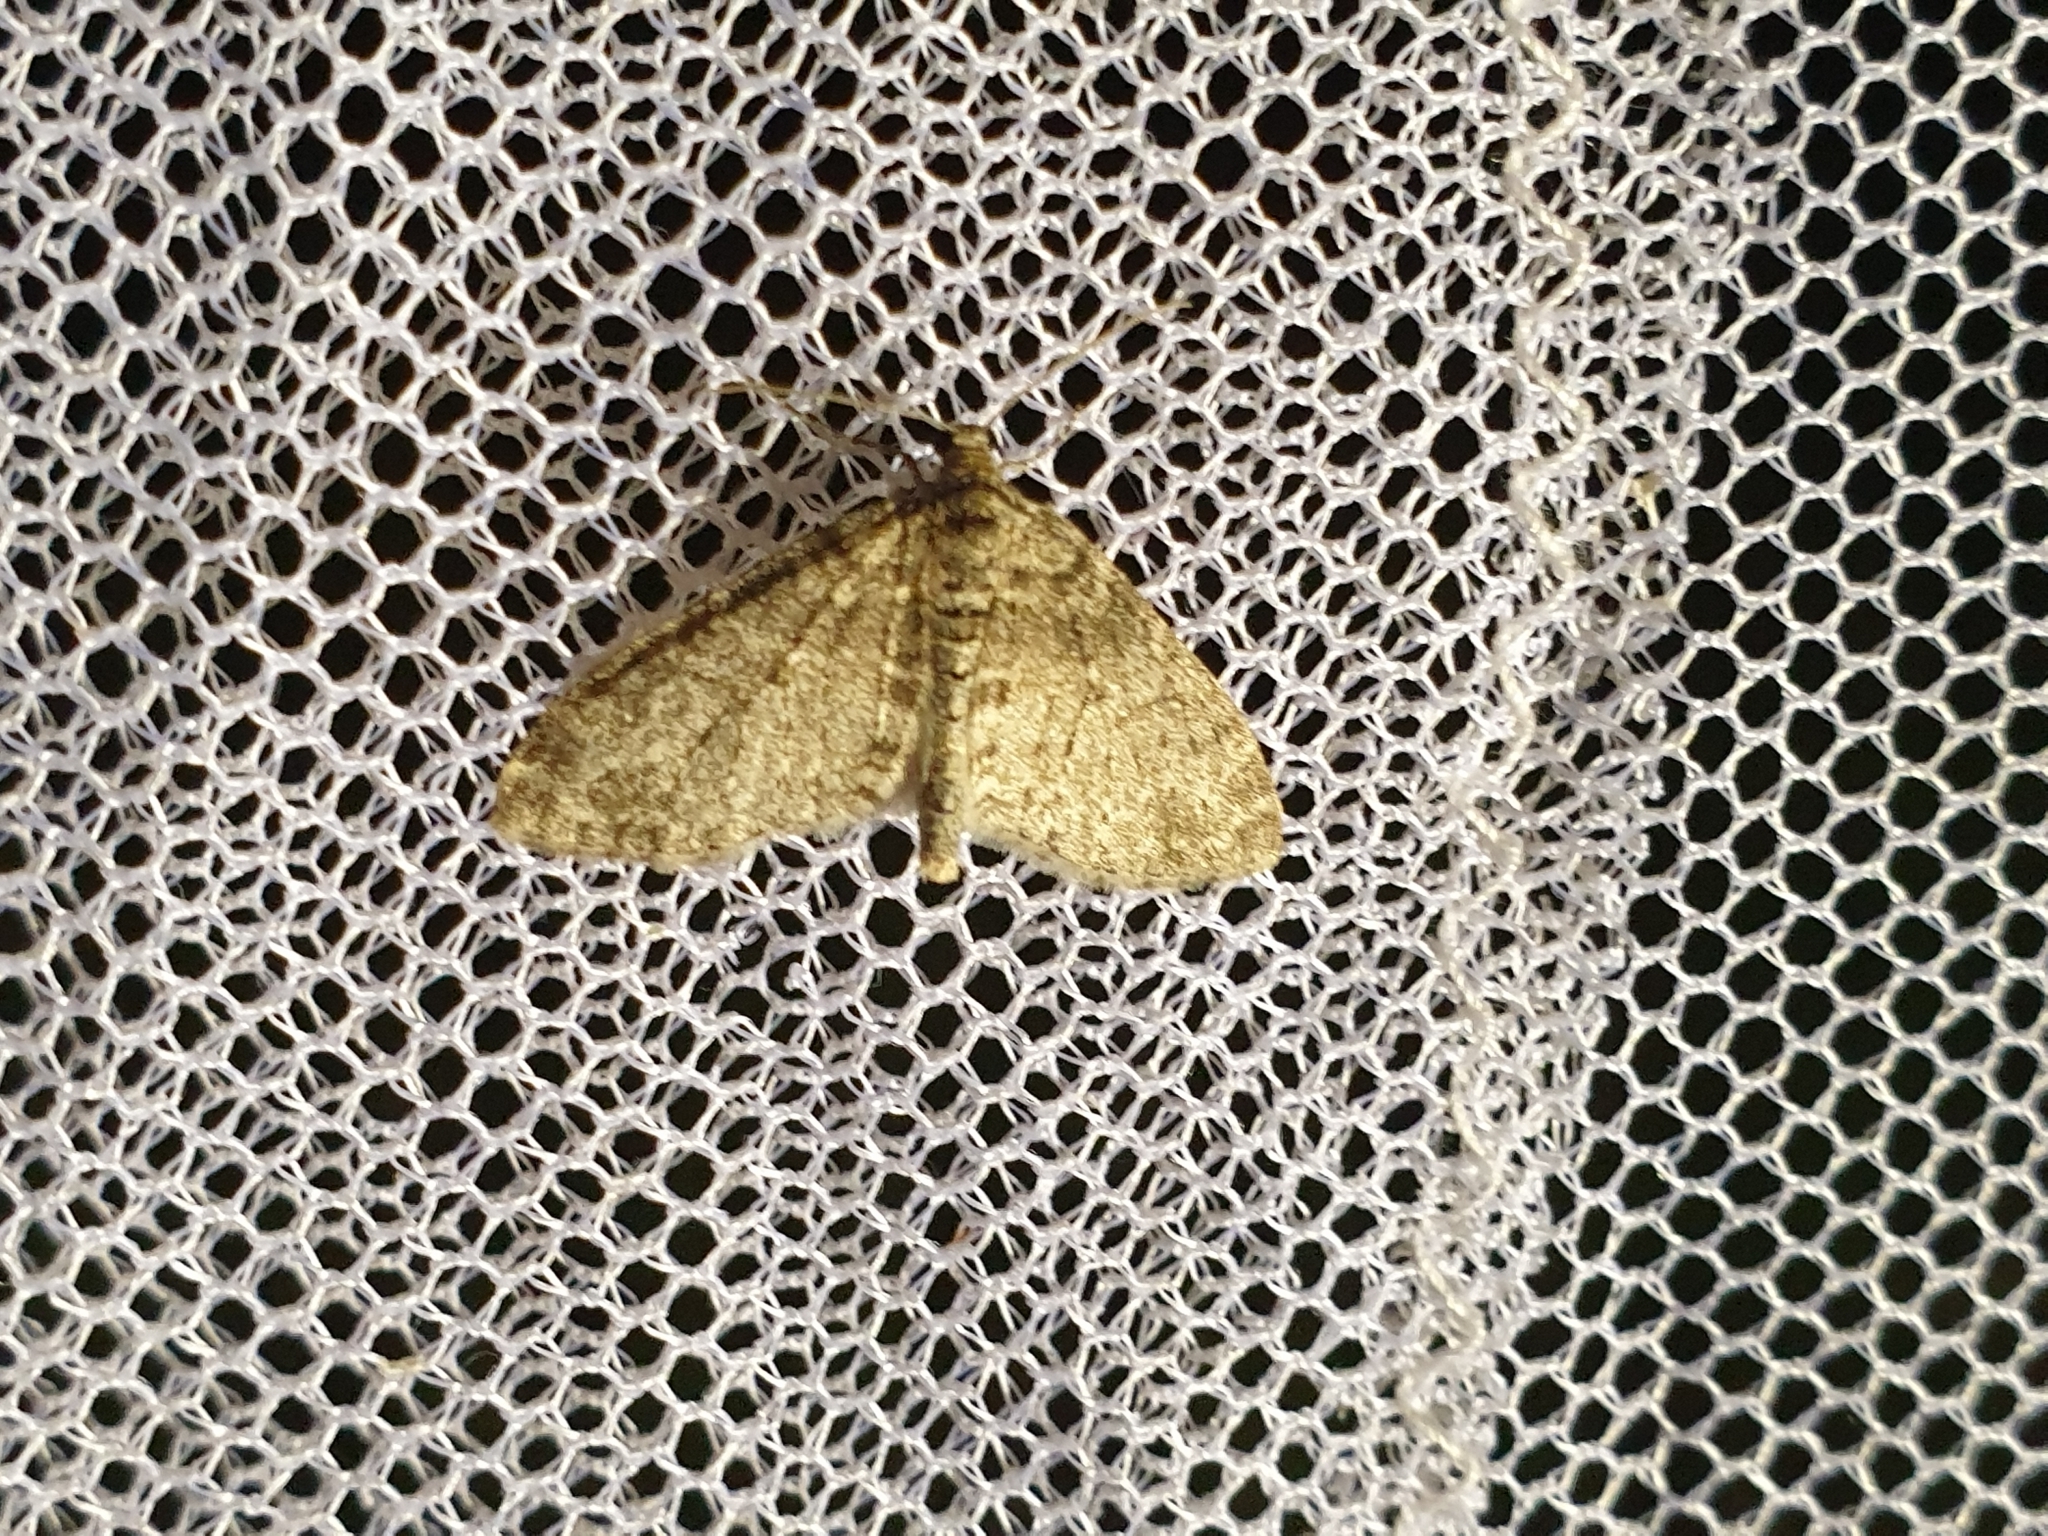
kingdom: Animalia
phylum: Arthropoda
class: Insecta
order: Lepidoptera
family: Geometridae
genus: Lobophora
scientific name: Lobophora halterata
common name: Seraphim
